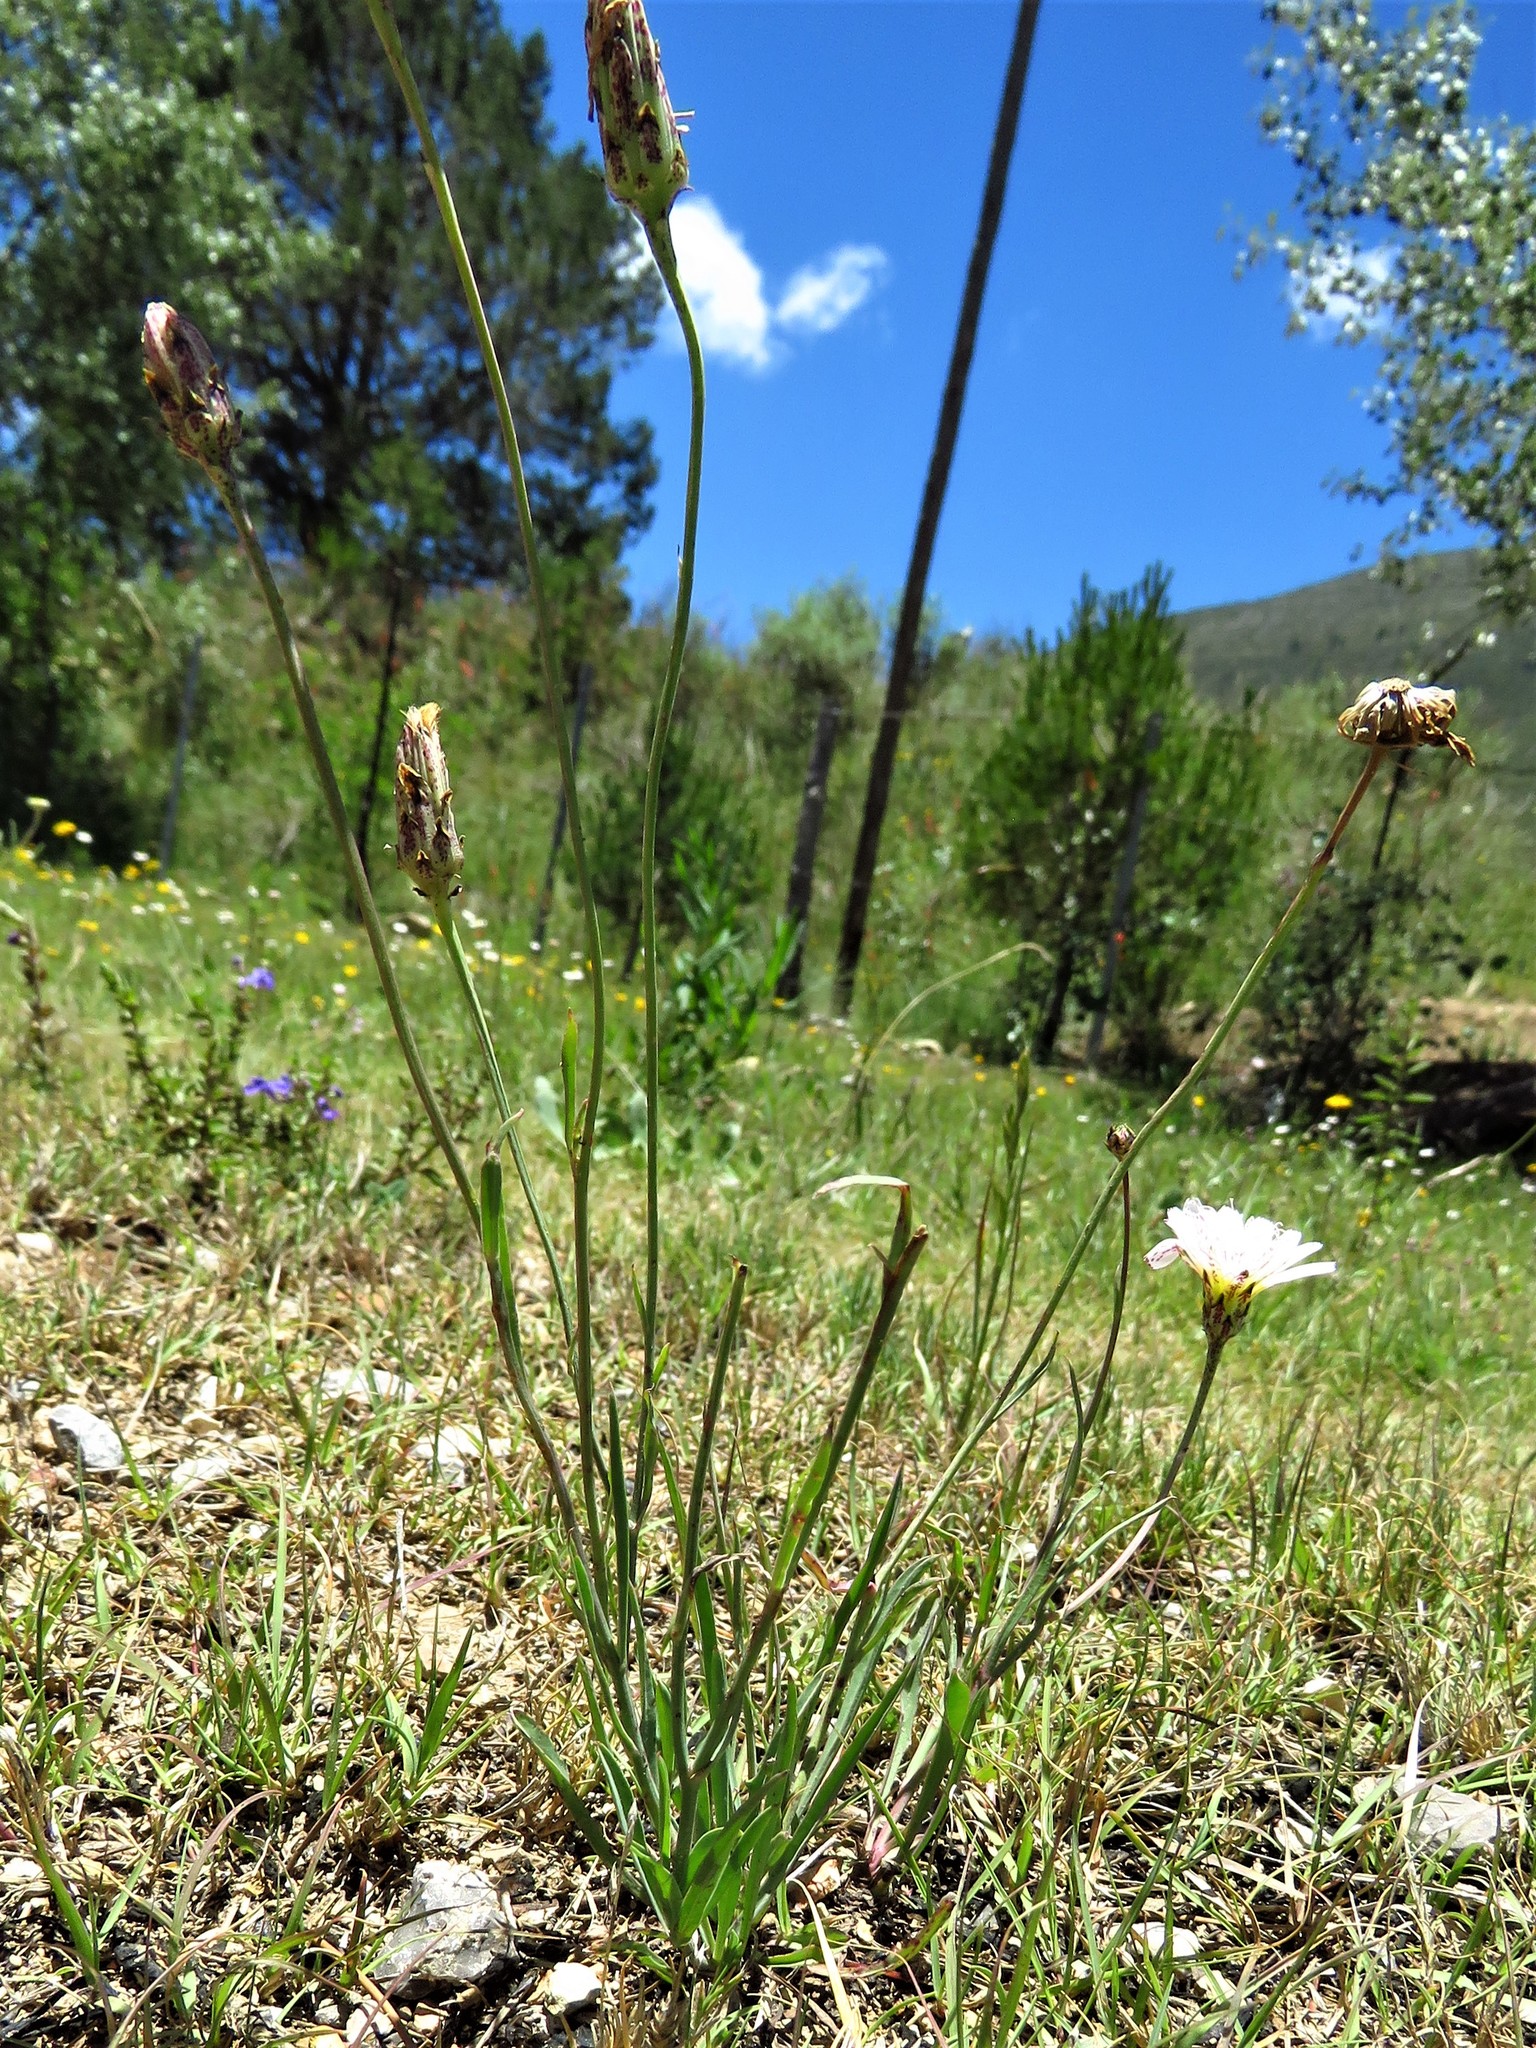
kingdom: Plantae
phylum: Tracheophyta
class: Magnoliopsida
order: Asterales
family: Asteraceae
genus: Pinaropappus
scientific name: Pinaropappus roseus
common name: Rock-lettuce
